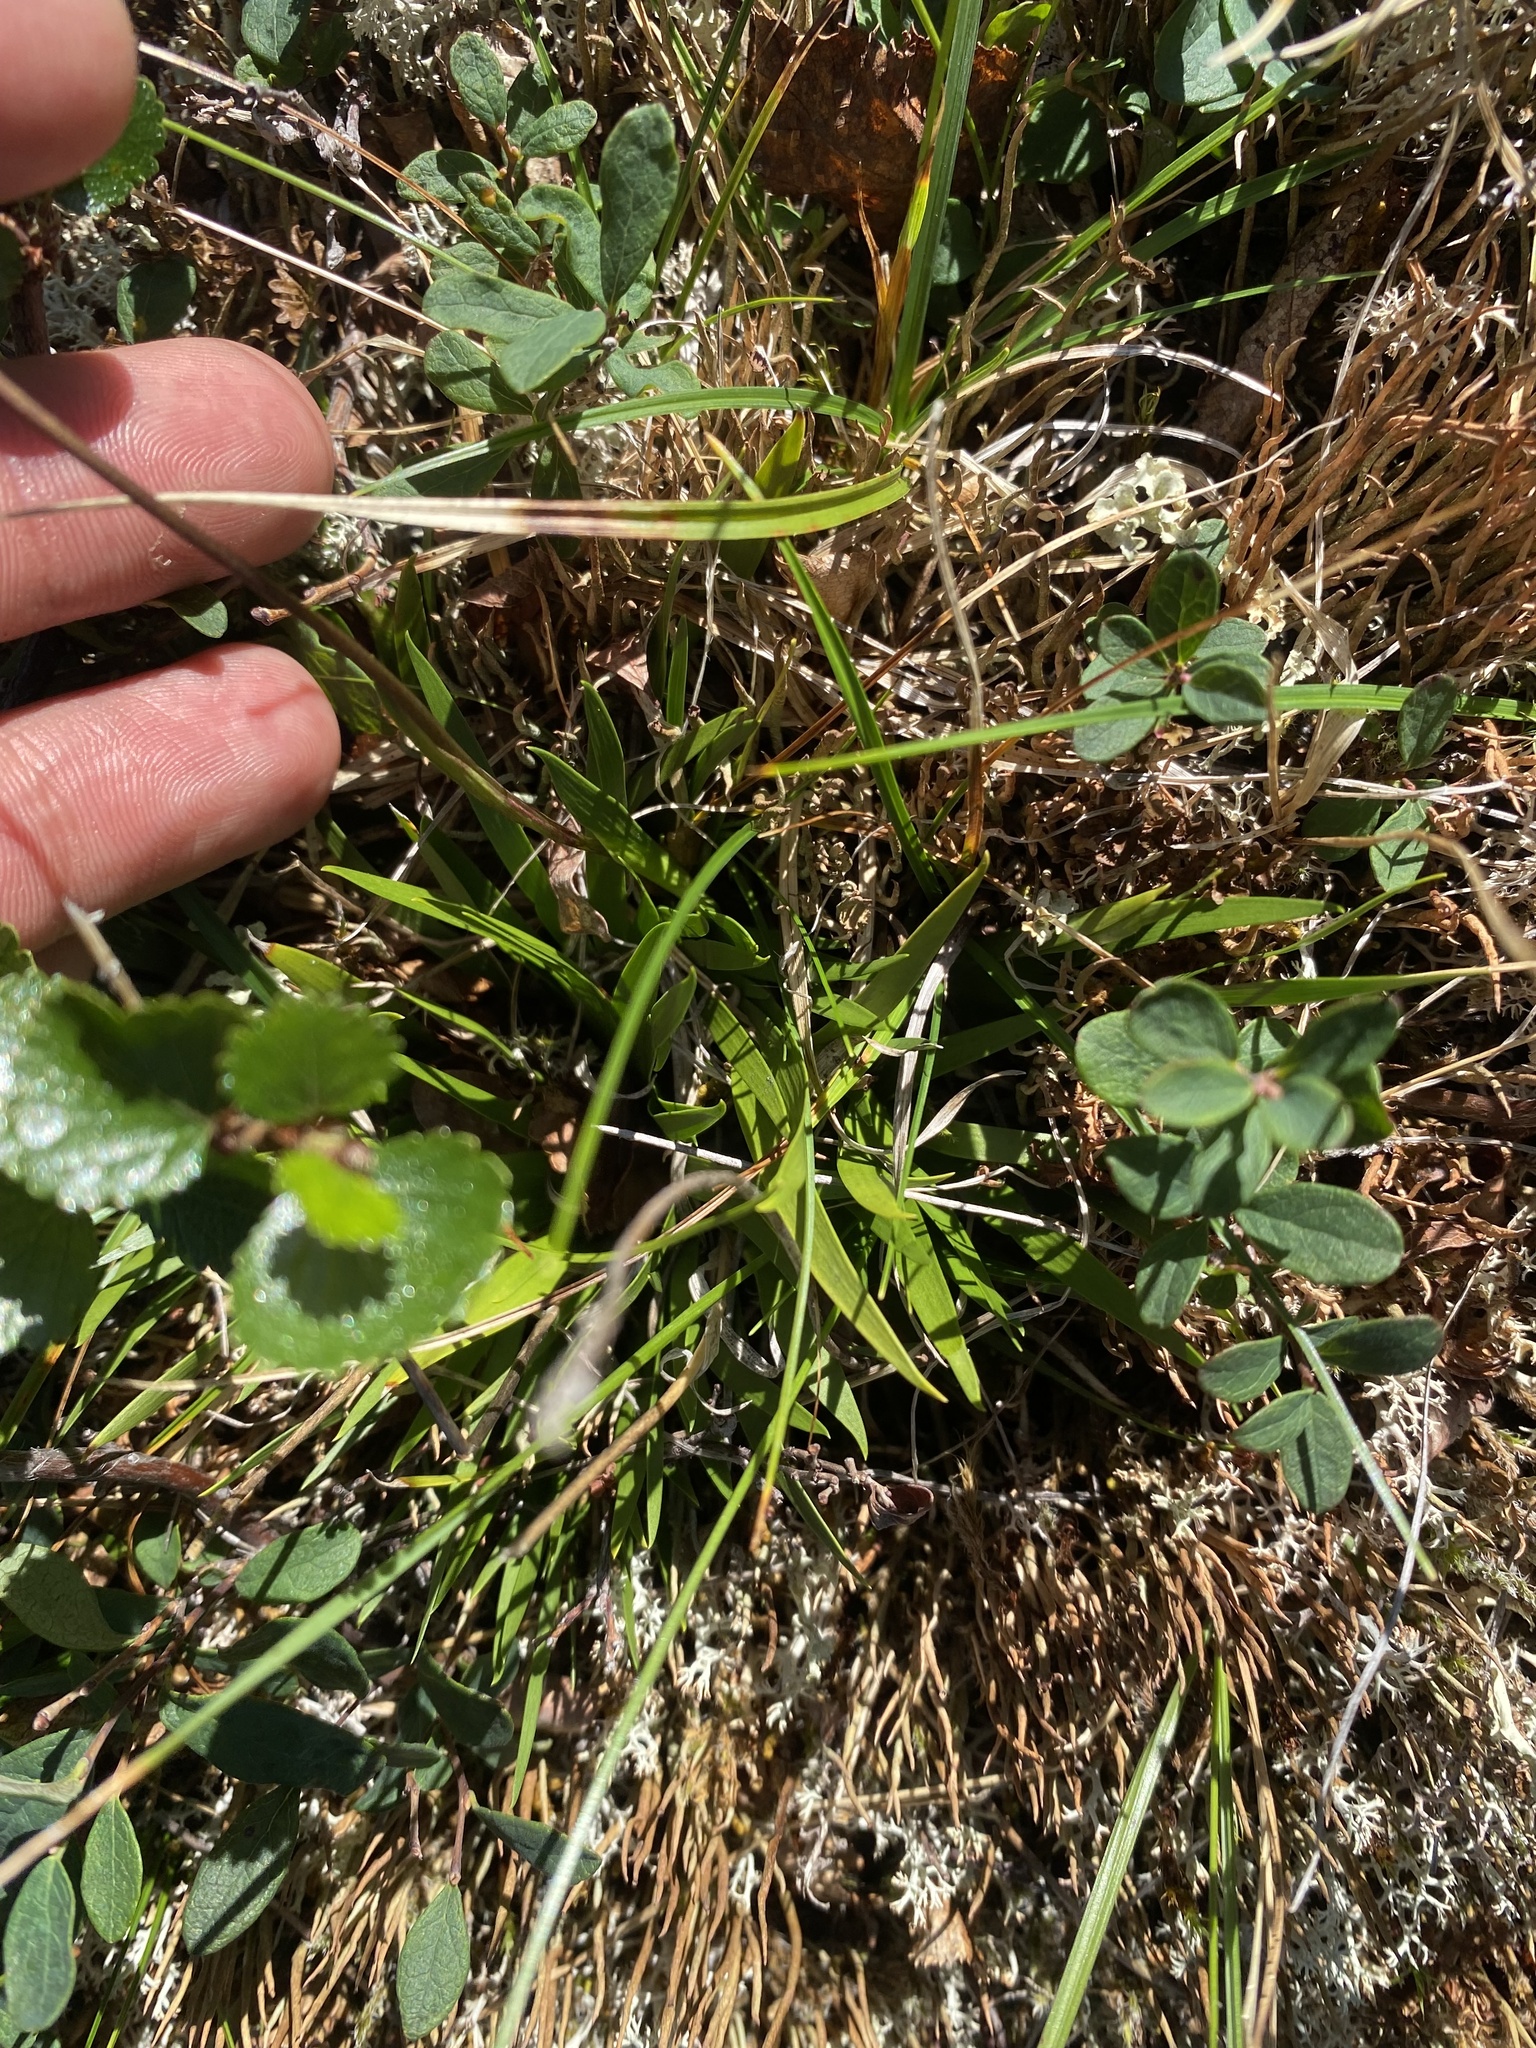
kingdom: Plantae
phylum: Tracheophyta
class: Liliopsida
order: Alismatales
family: Tofieldiaceae
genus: Tofieldia
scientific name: Tofieldia coccinea
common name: Northern false asphodel
